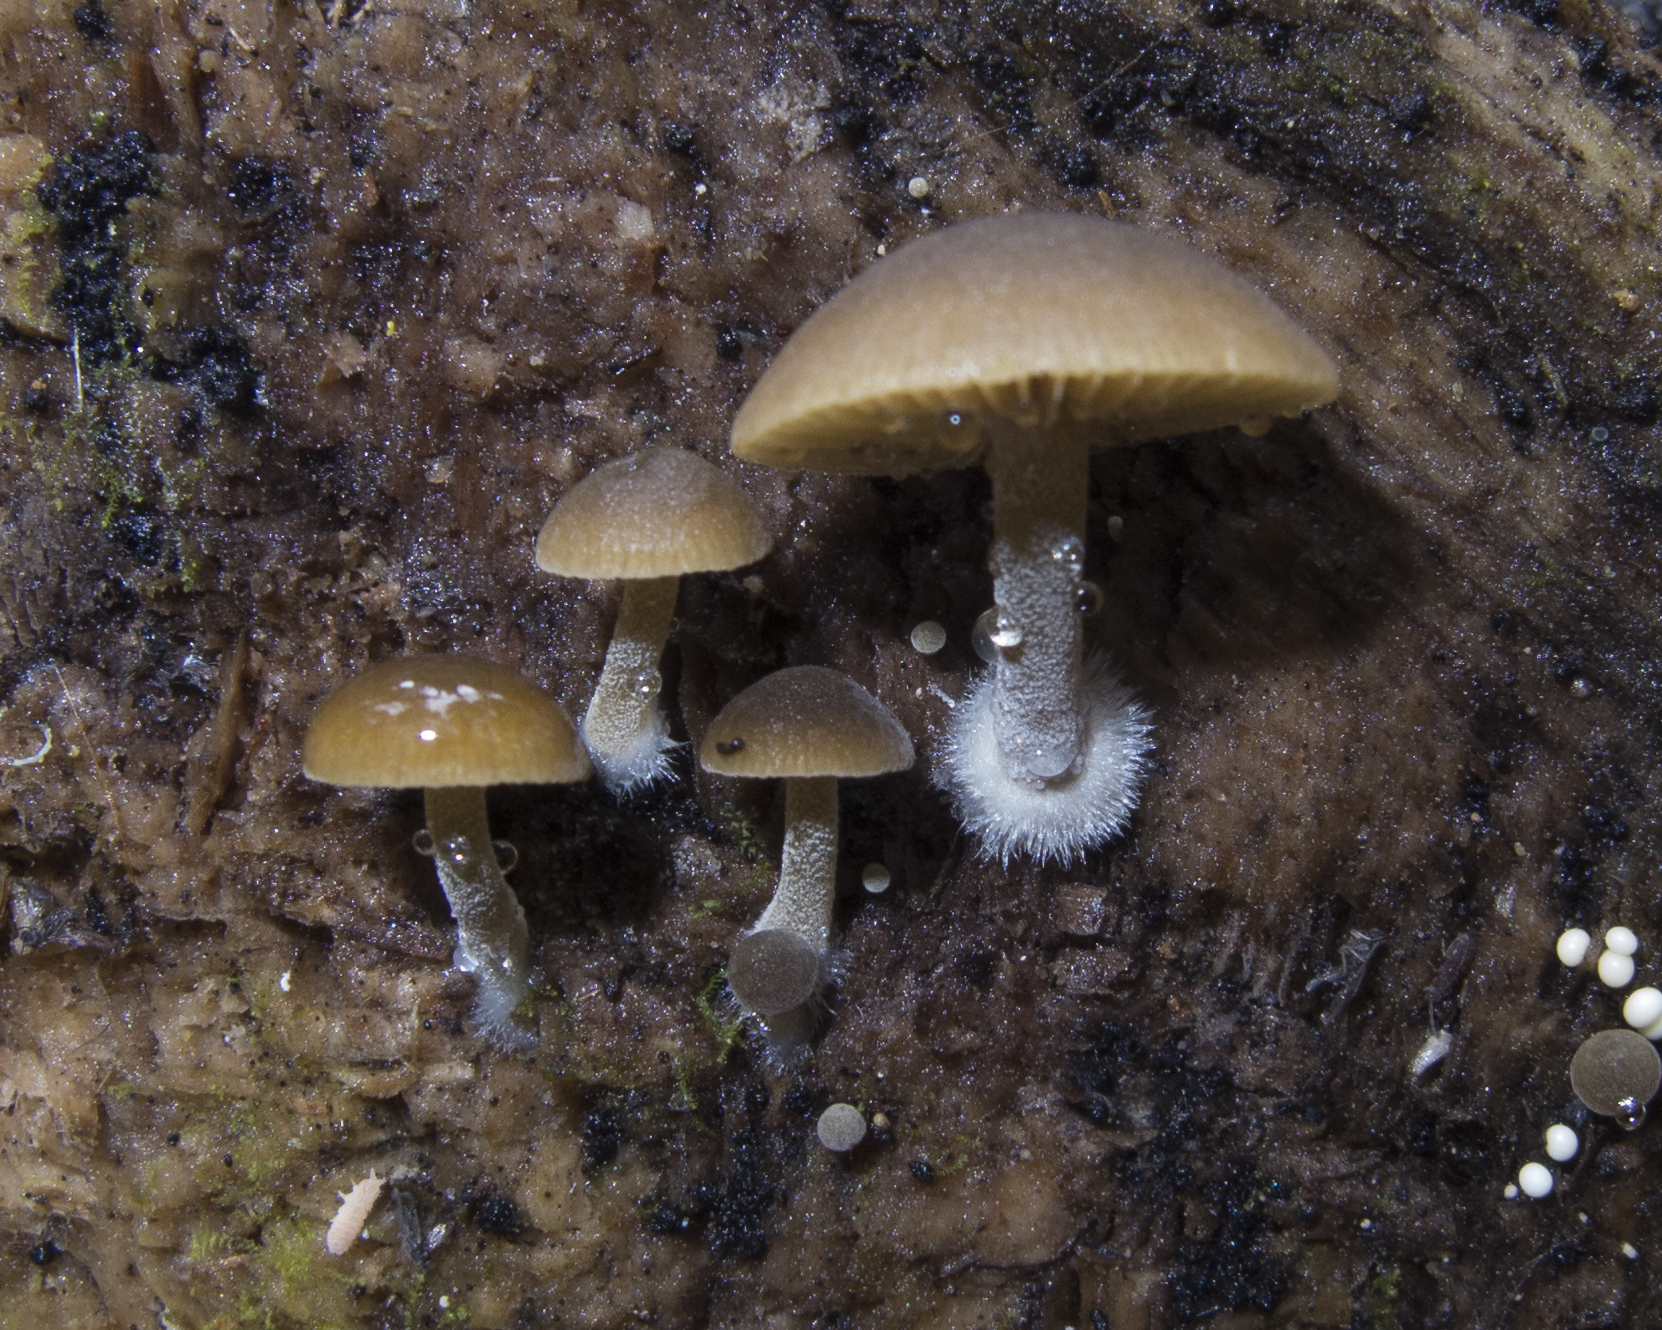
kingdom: Fungi
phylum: Basidiomycota
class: Agaricomycetes
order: Agaricales
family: Crepidotaceae
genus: Simocybe
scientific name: Simocybe largispora
